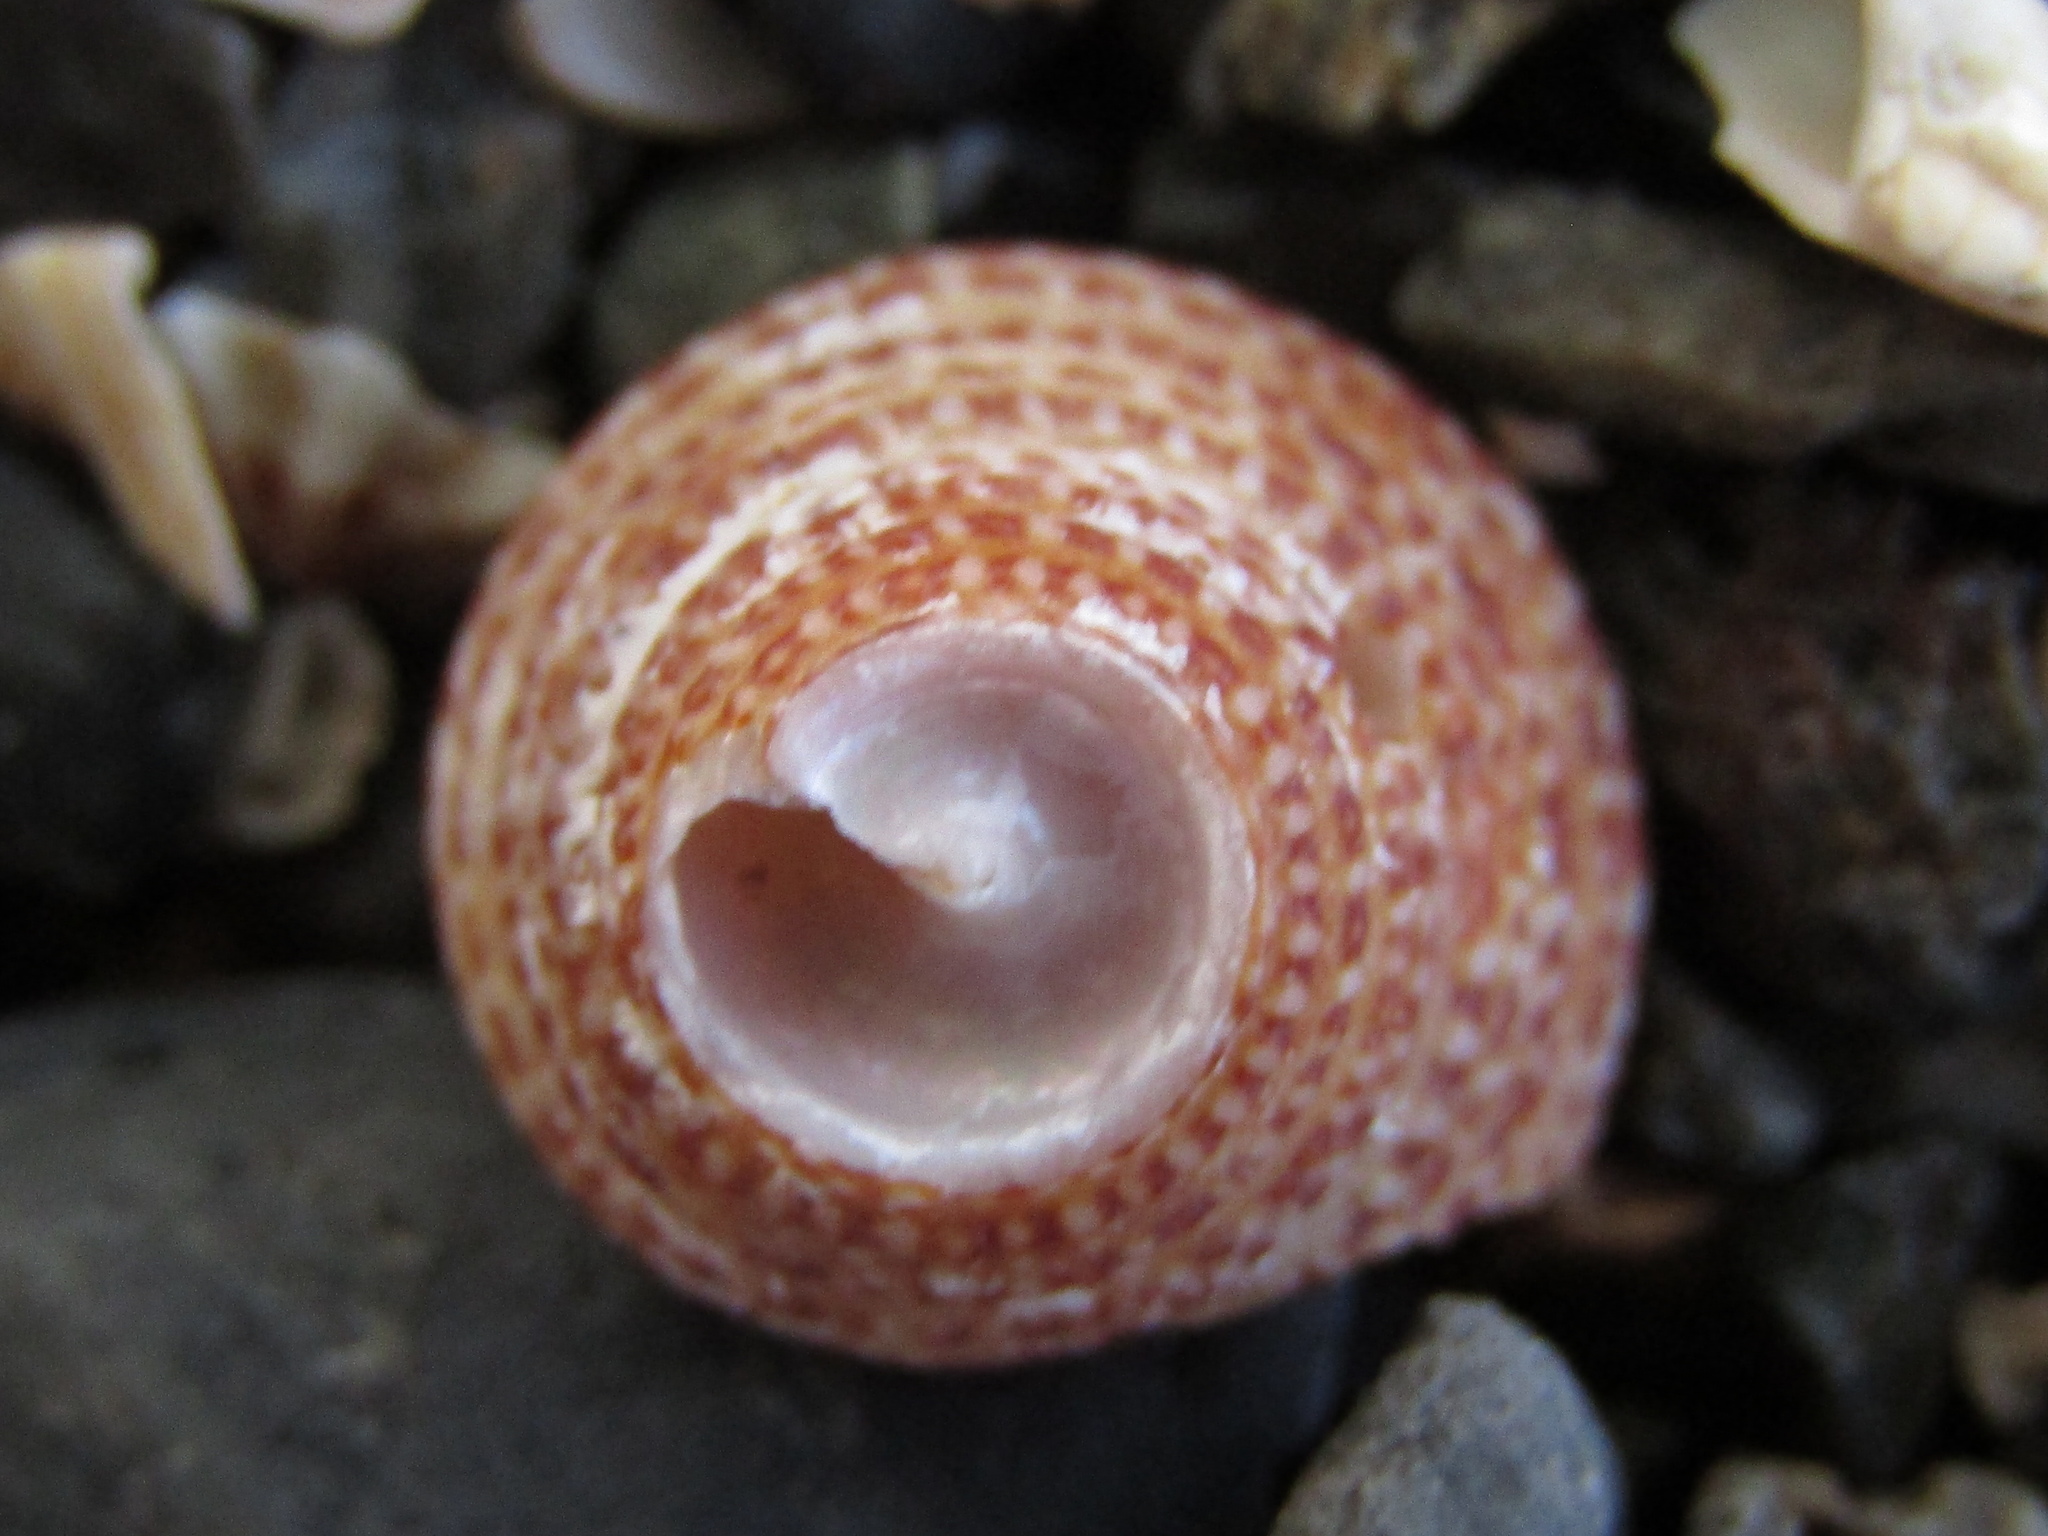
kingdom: Animalia
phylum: Mollusca
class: Gastropoda
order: Trochida
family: Calliostomatidae
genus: Maurea
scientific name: Maurea osbornei
